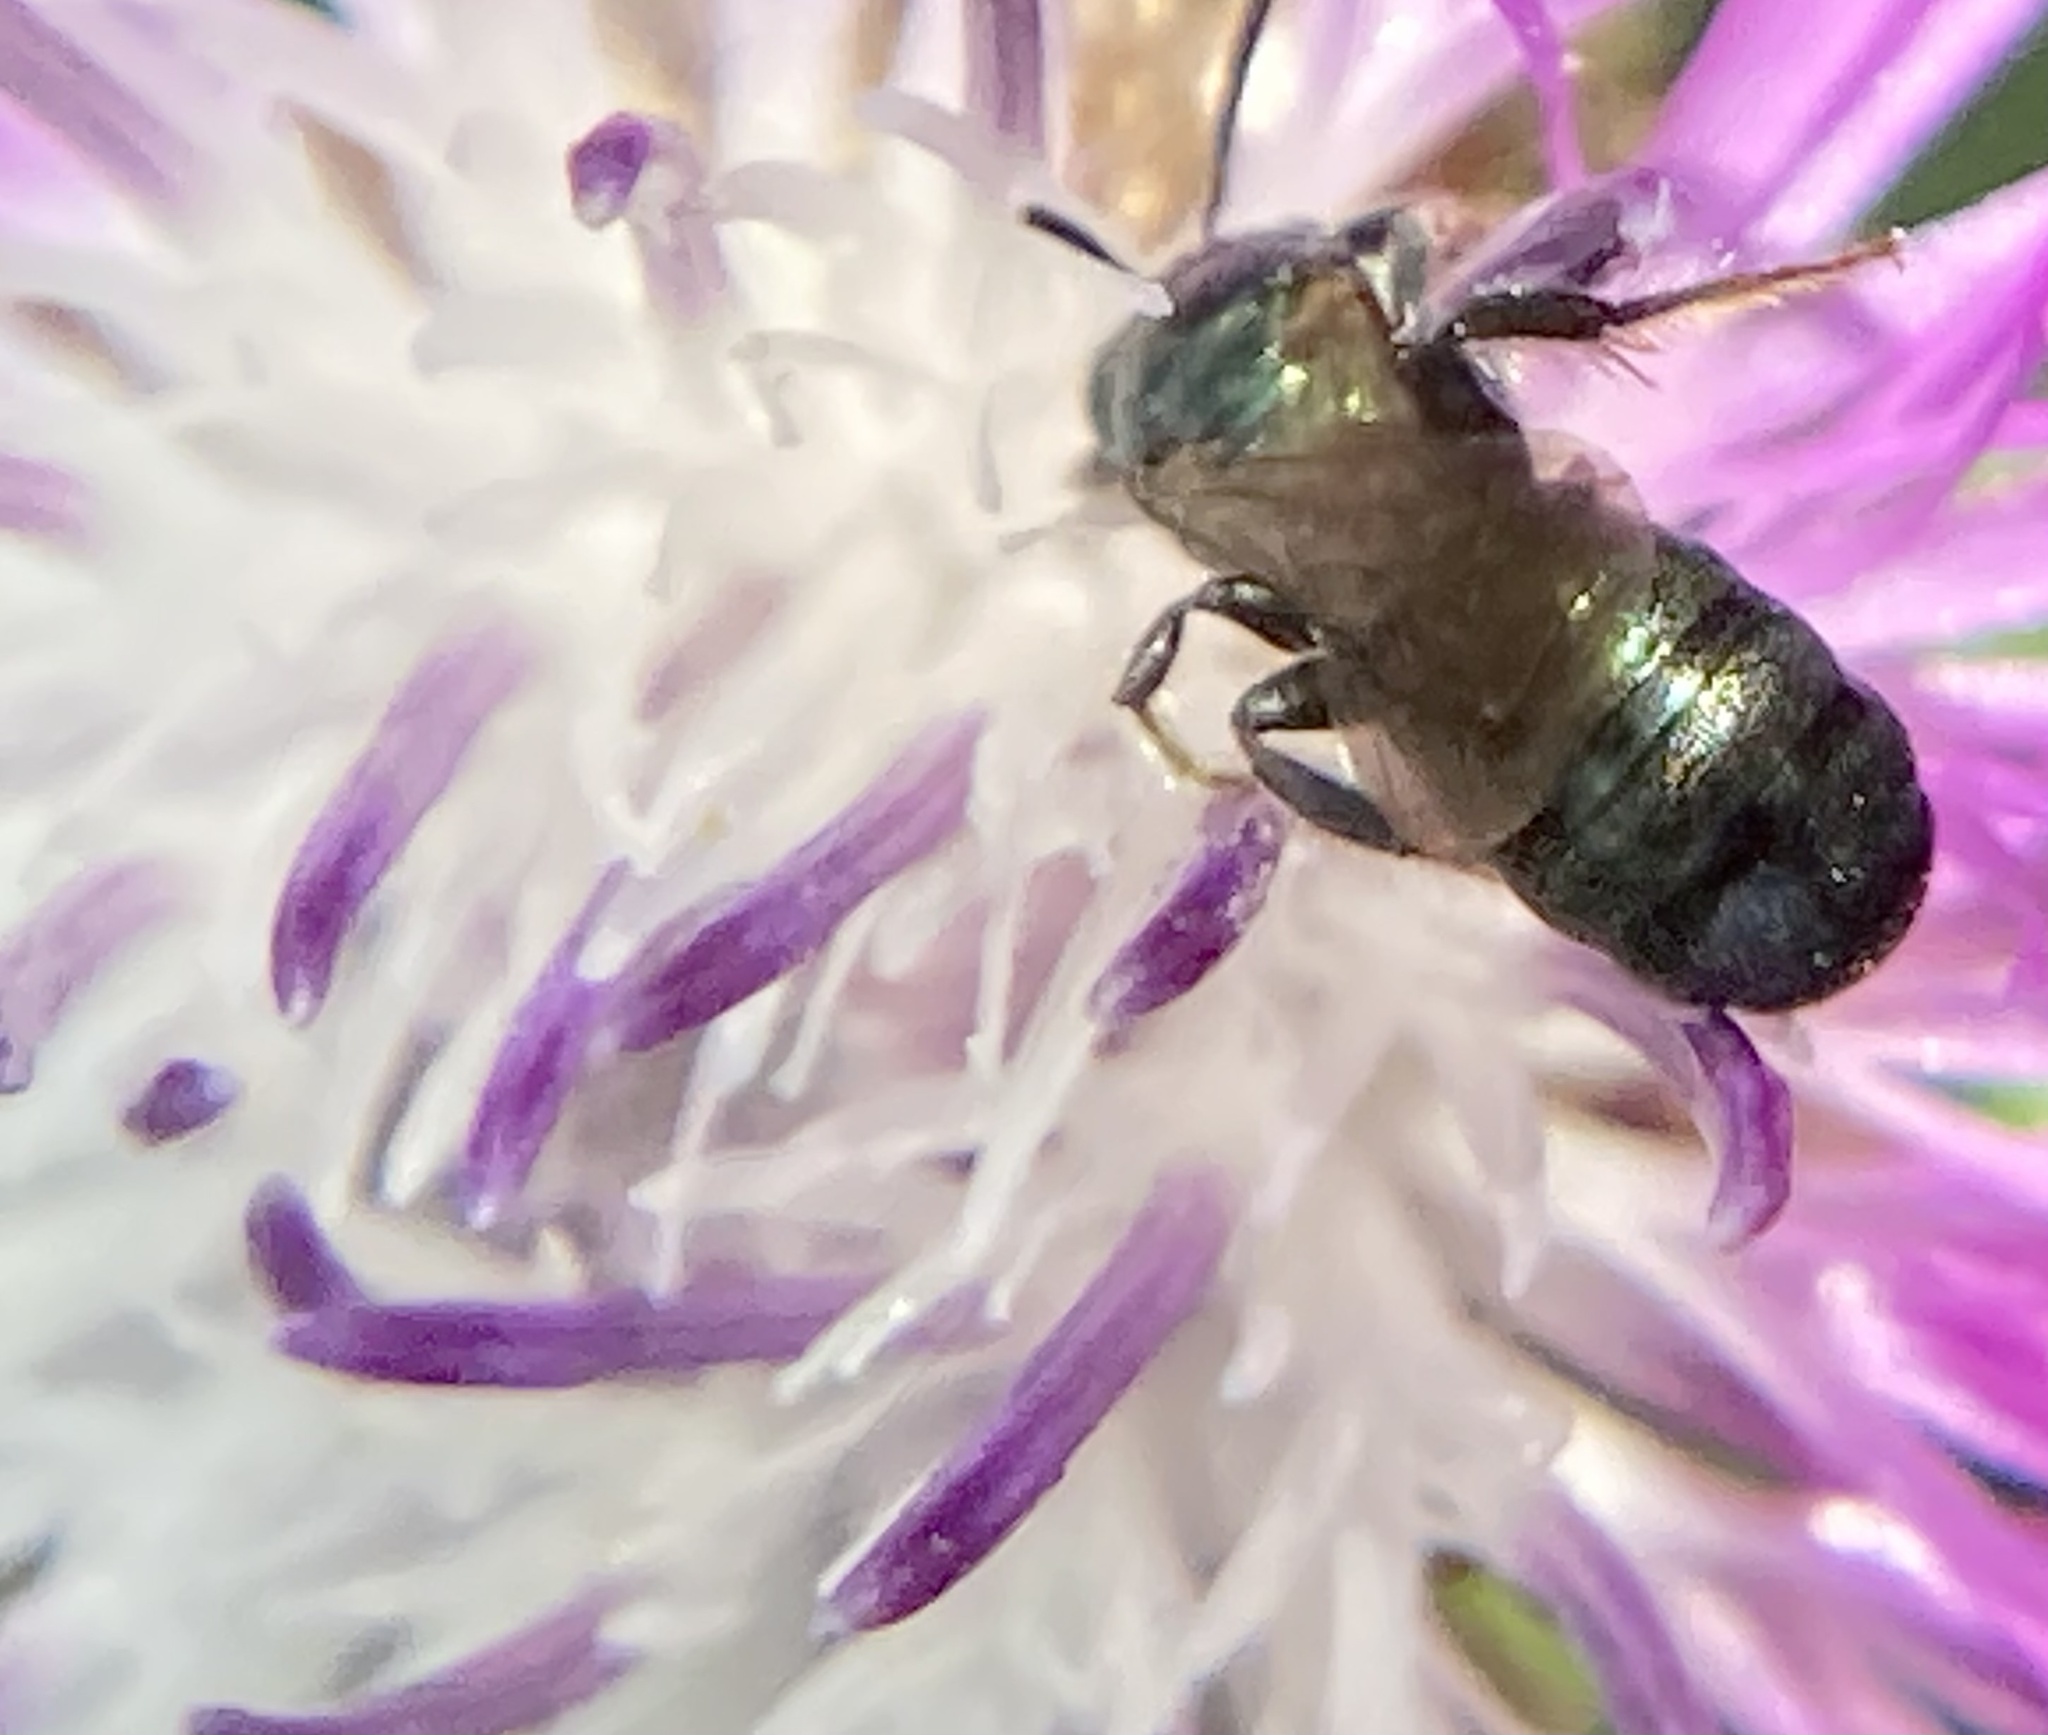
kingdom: Animalia
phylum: Arthropoda
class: Insecta
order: Hymenoptera
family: Apidae
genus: Zadontomerus
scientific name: Zadontomerus
